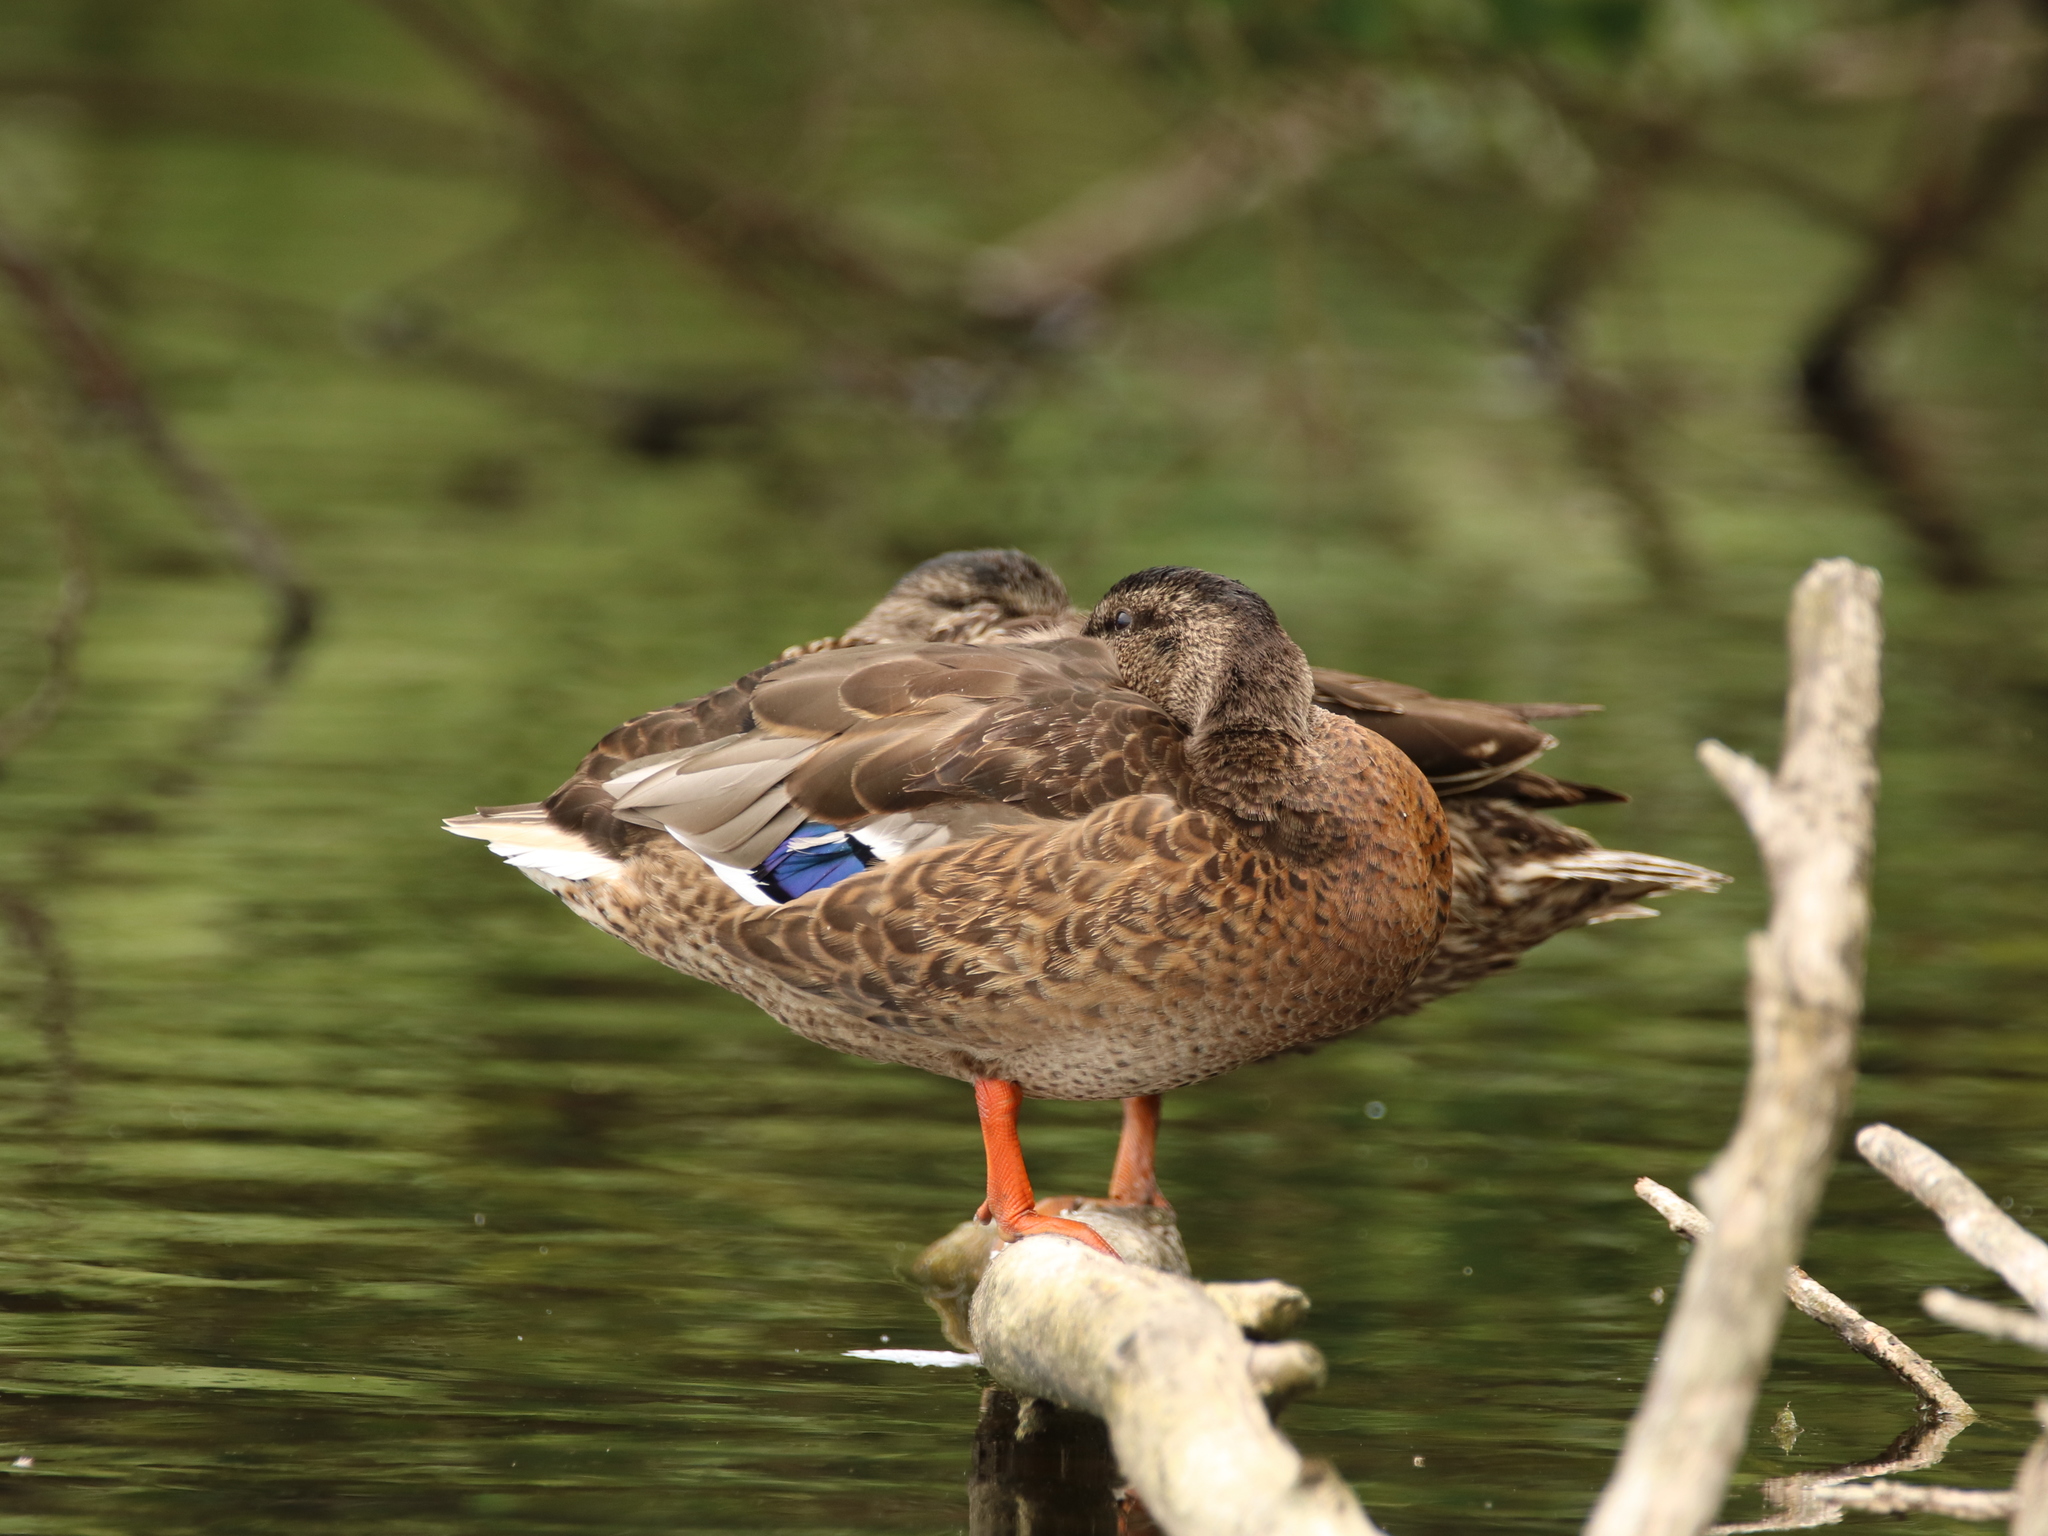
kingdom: Animalia
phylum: Chordata
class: Aves
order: Anseriformes
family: Anatidae
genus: Anas
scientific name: Anas platyrhynchos
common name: Mallard
